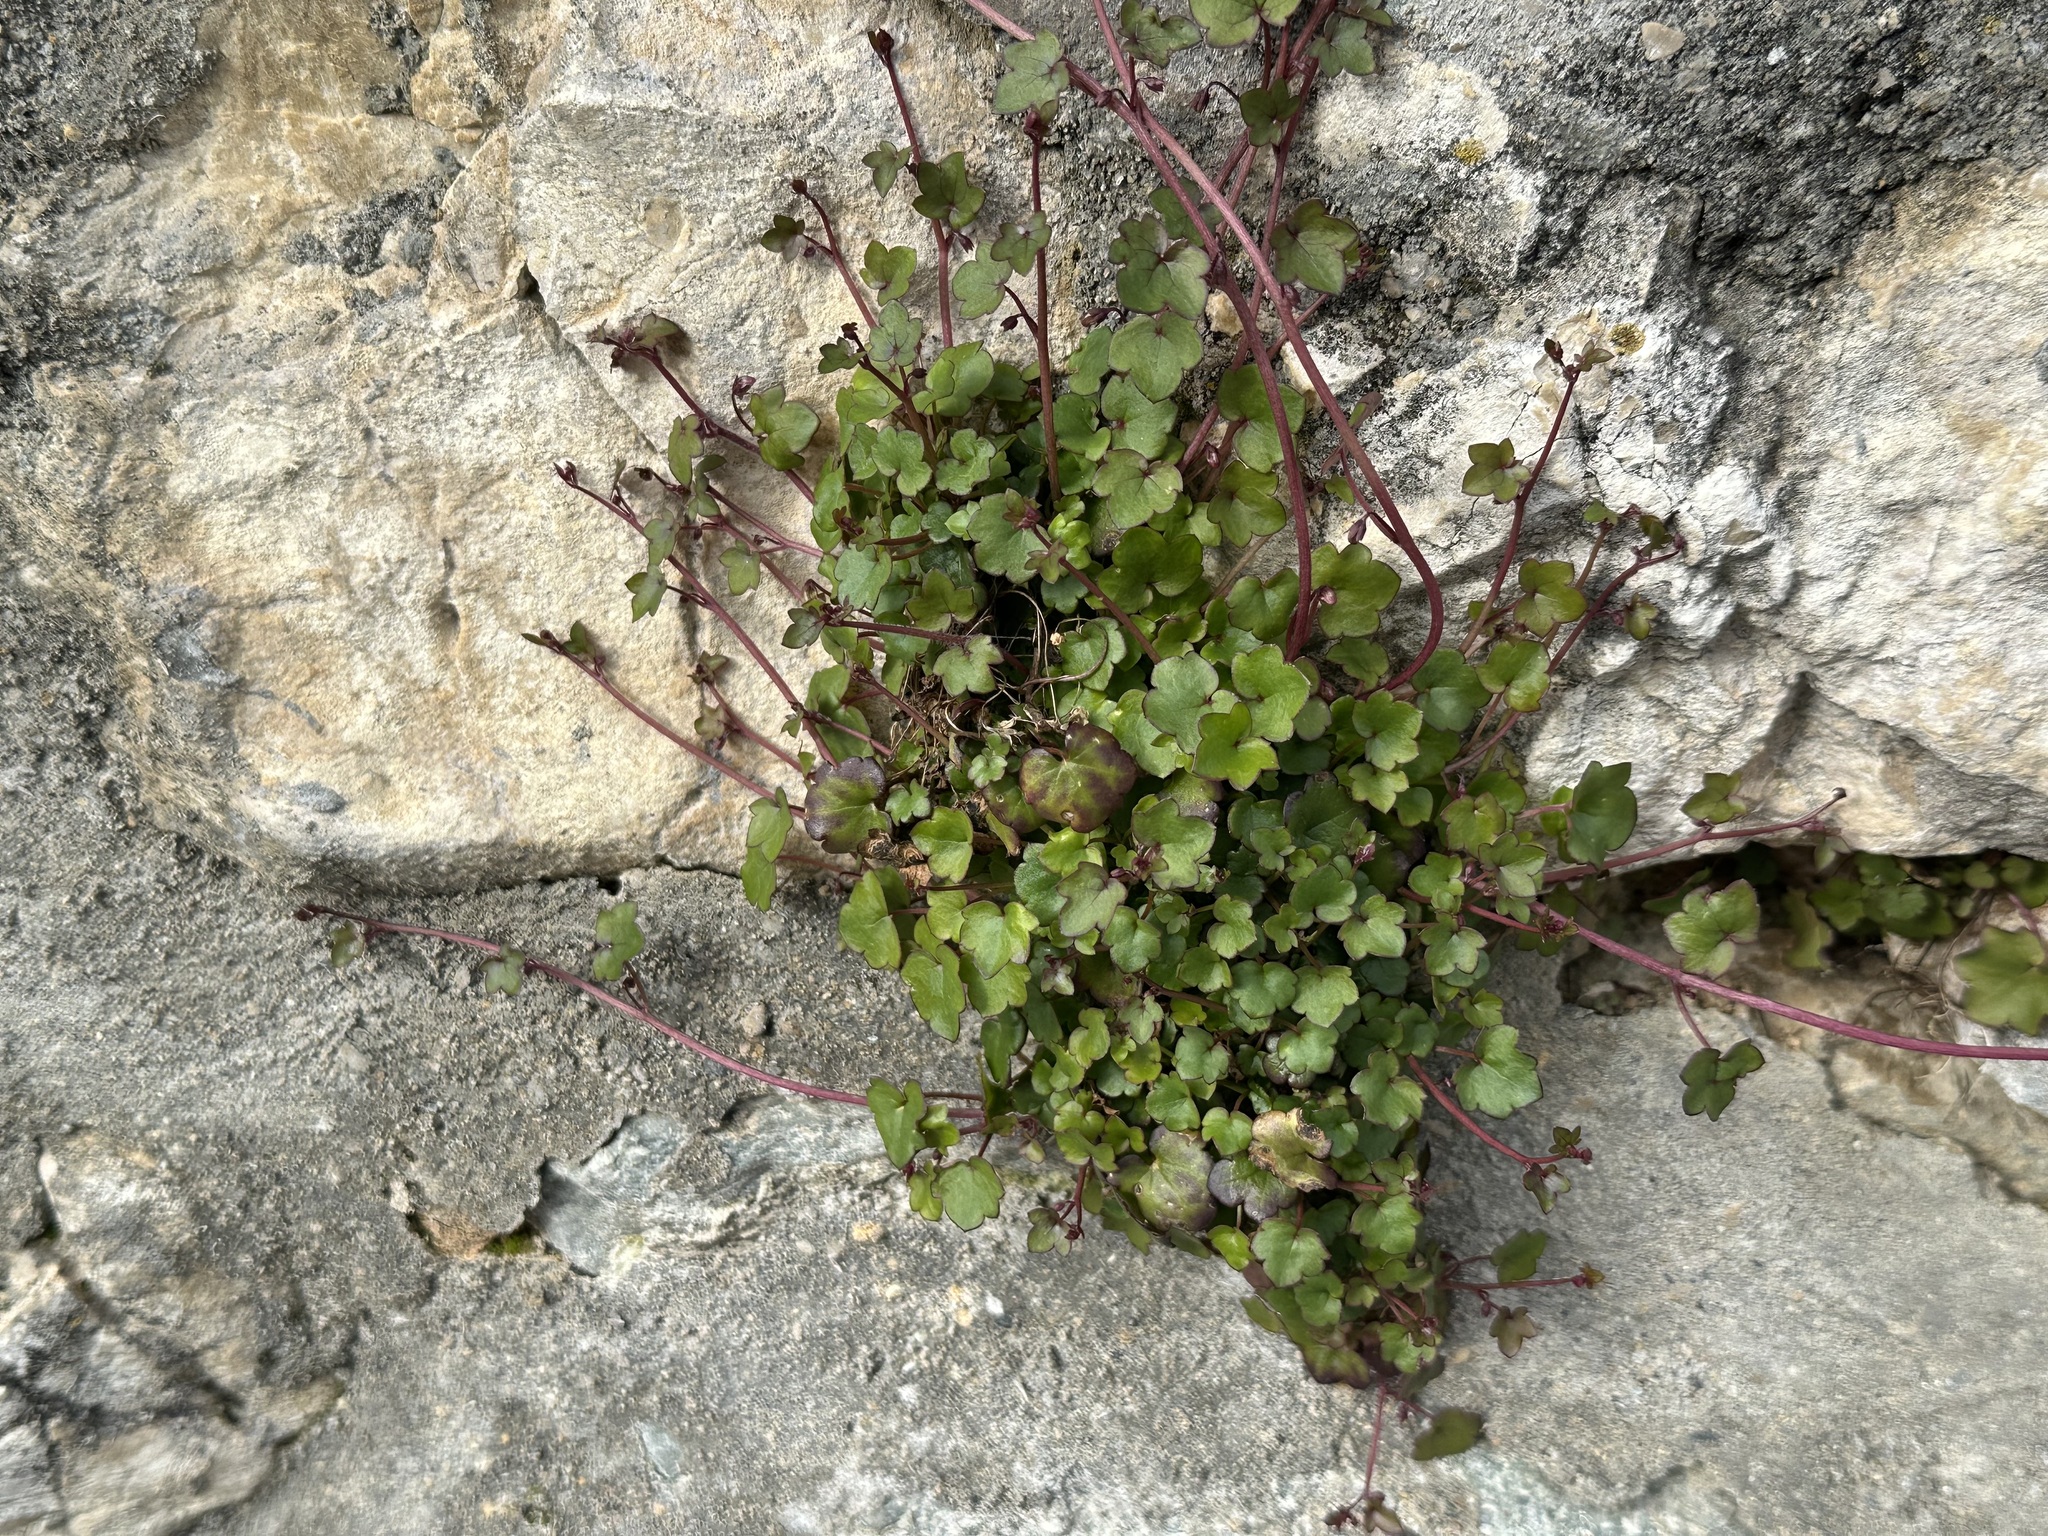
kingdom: Plantae
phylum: Tracheophyta
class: Magnoliopsida
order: Lamiales
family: Plantaginaceae
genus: Cymbalaria
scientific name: Cymbalaria muralis
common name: Ivy-leaved toadflax
